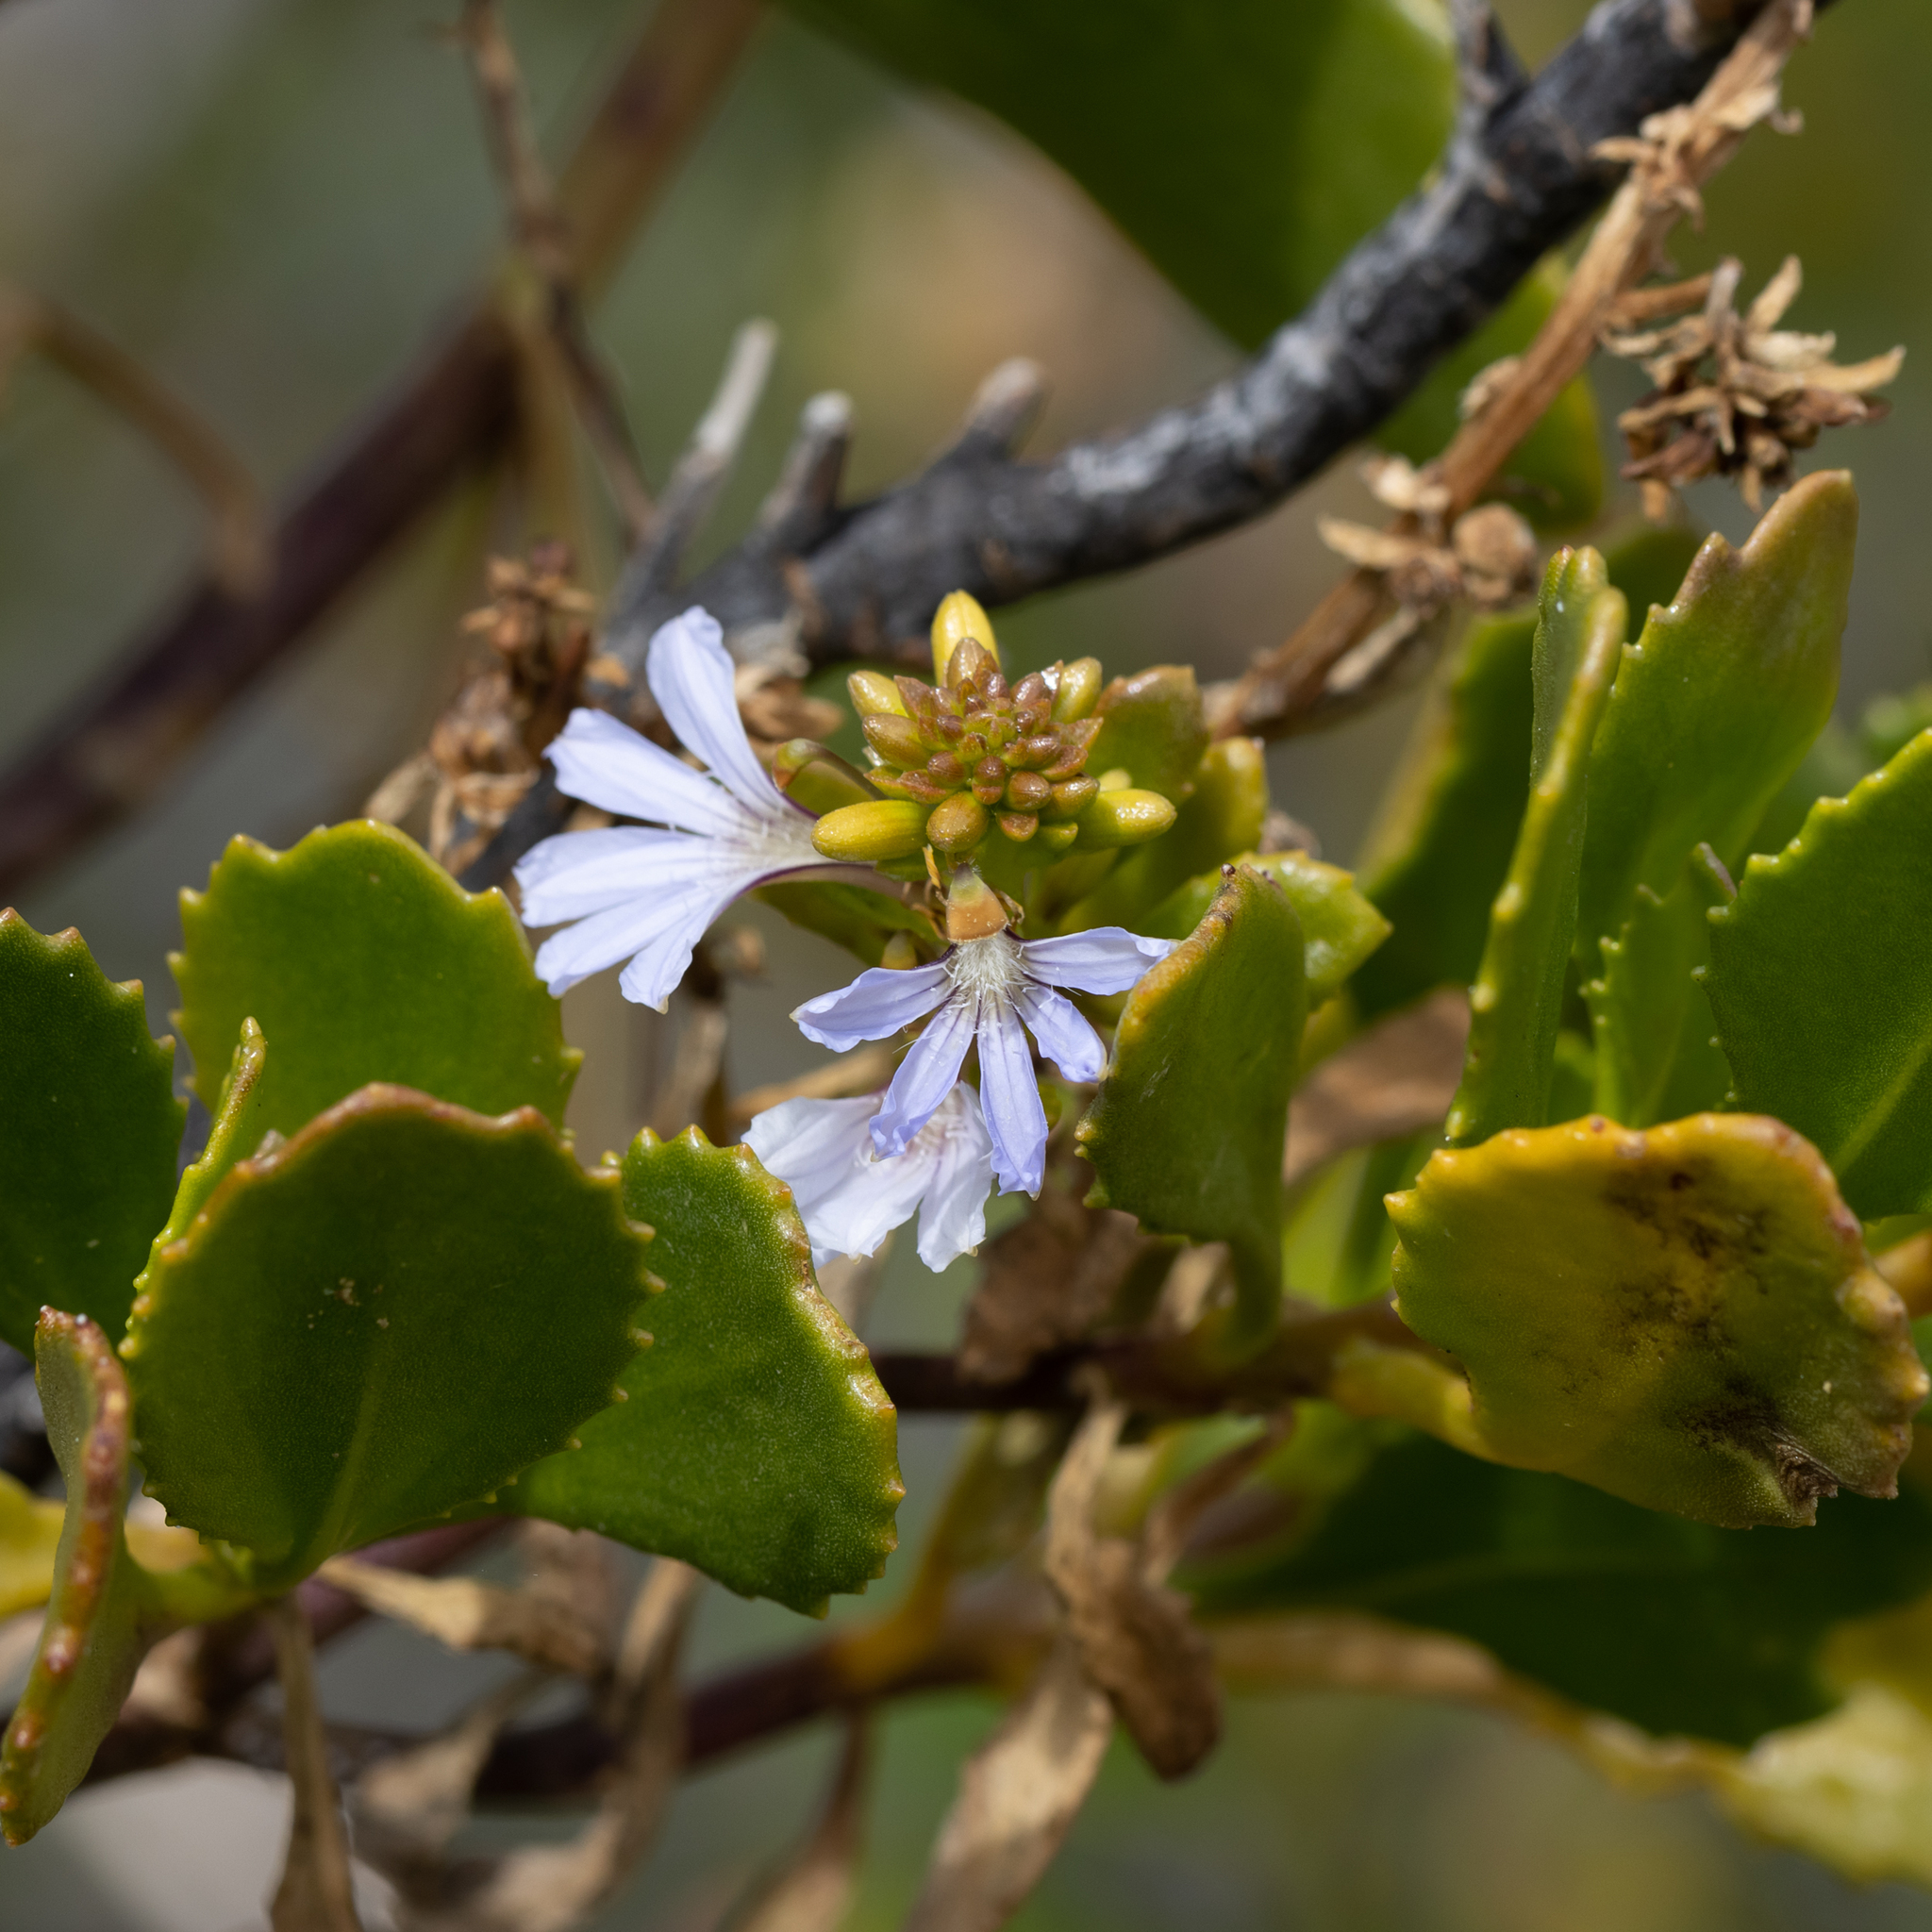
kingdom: Plantae
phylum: Tracheophyta
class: Magnoliopsida
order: Asterales
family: Goodeniaceae
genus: Scaevola
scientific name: Scaevola crassifolia
